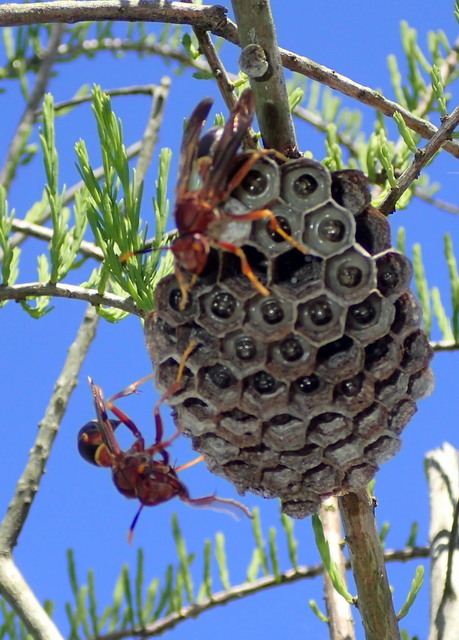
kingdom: Animalia
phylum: Arthropoda
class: Insecta
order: Hymenoptera
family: Eumenidae
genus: Polistes
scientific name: Polistes annularis
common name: Ringed paper wasp
